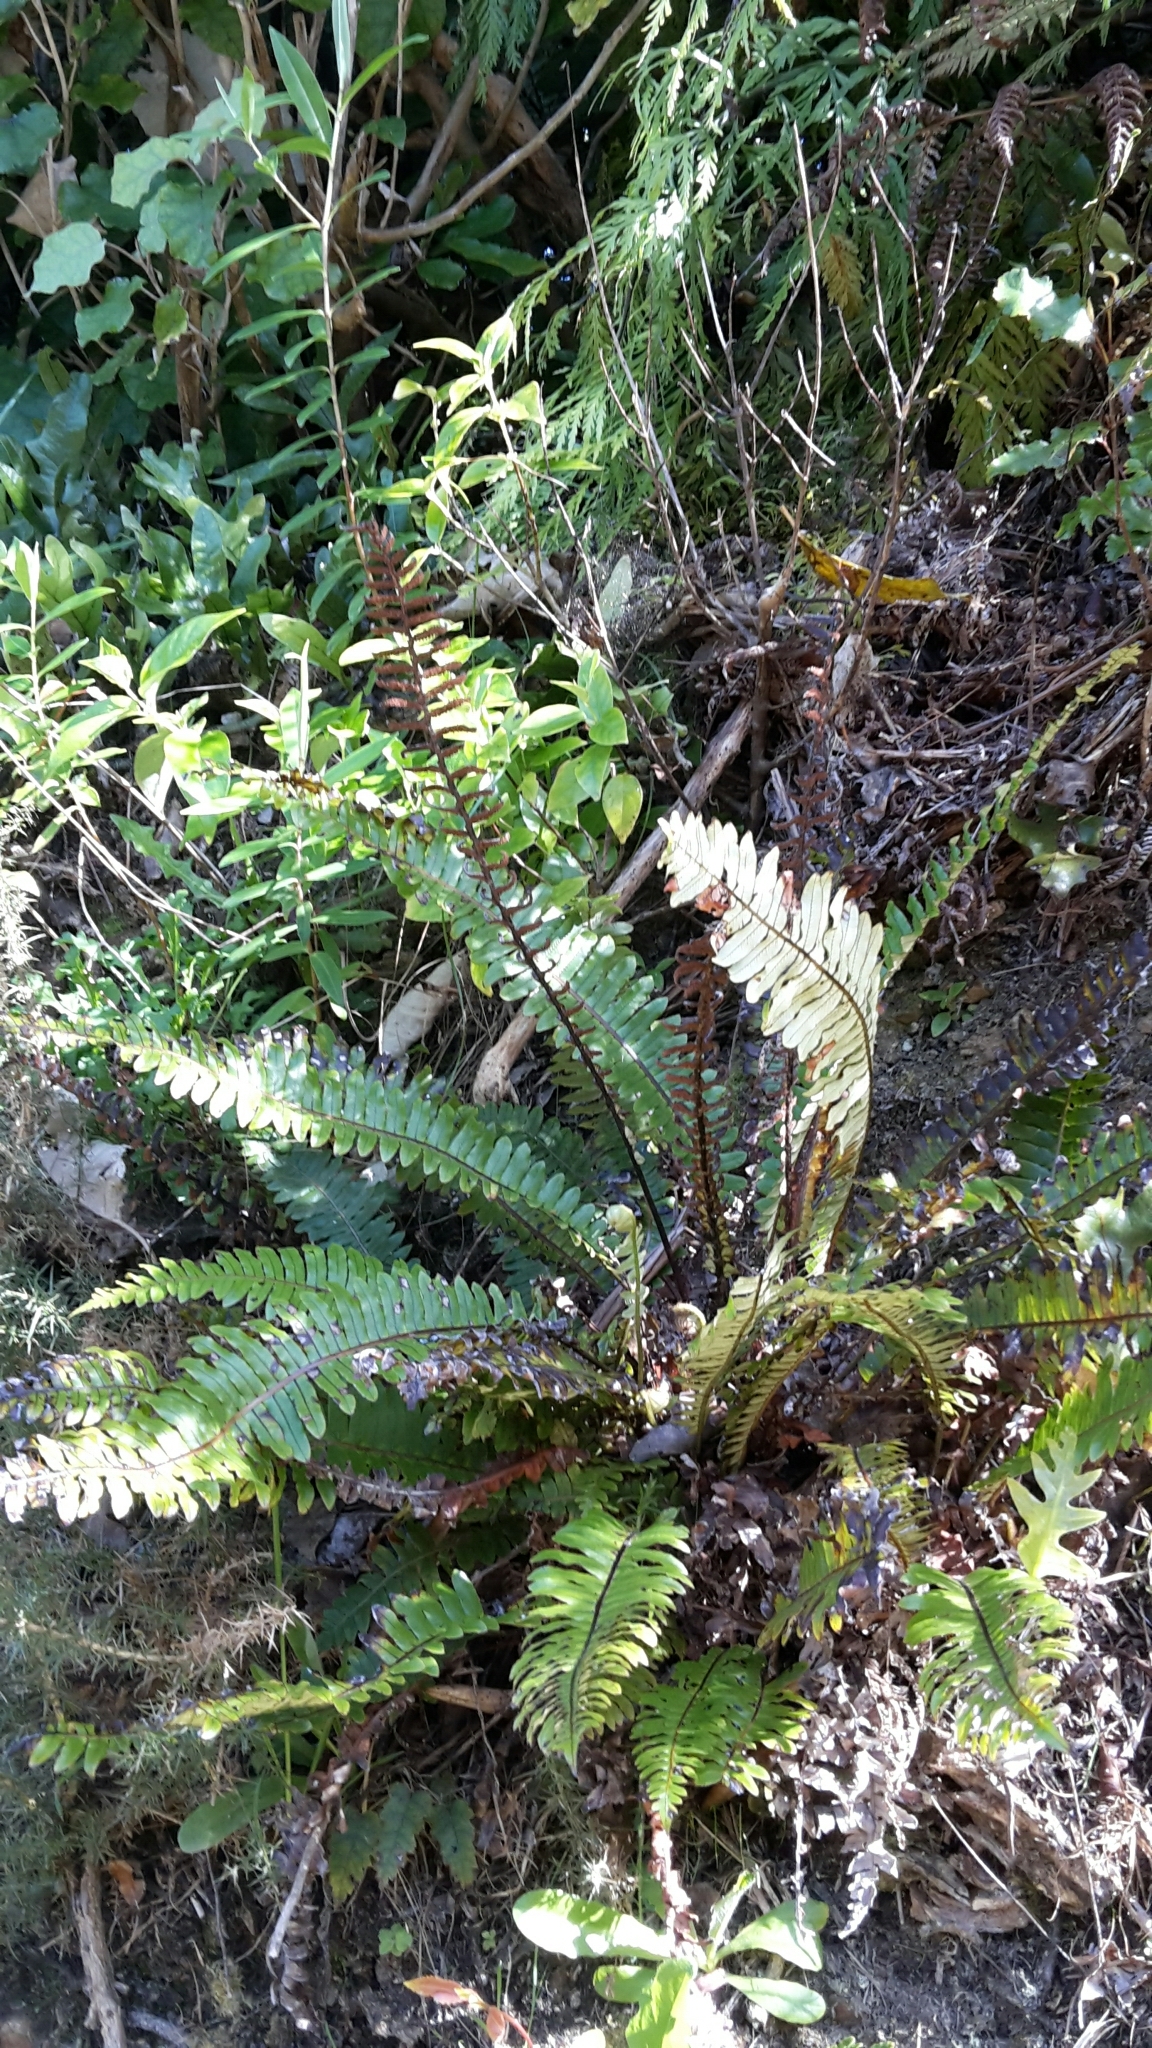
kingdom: Plantae
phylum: Tracheophyta
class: Polypodiopsida
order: Polypodiales
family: Blechnaceae
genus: Lomaria
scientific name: Lomaria discolor
